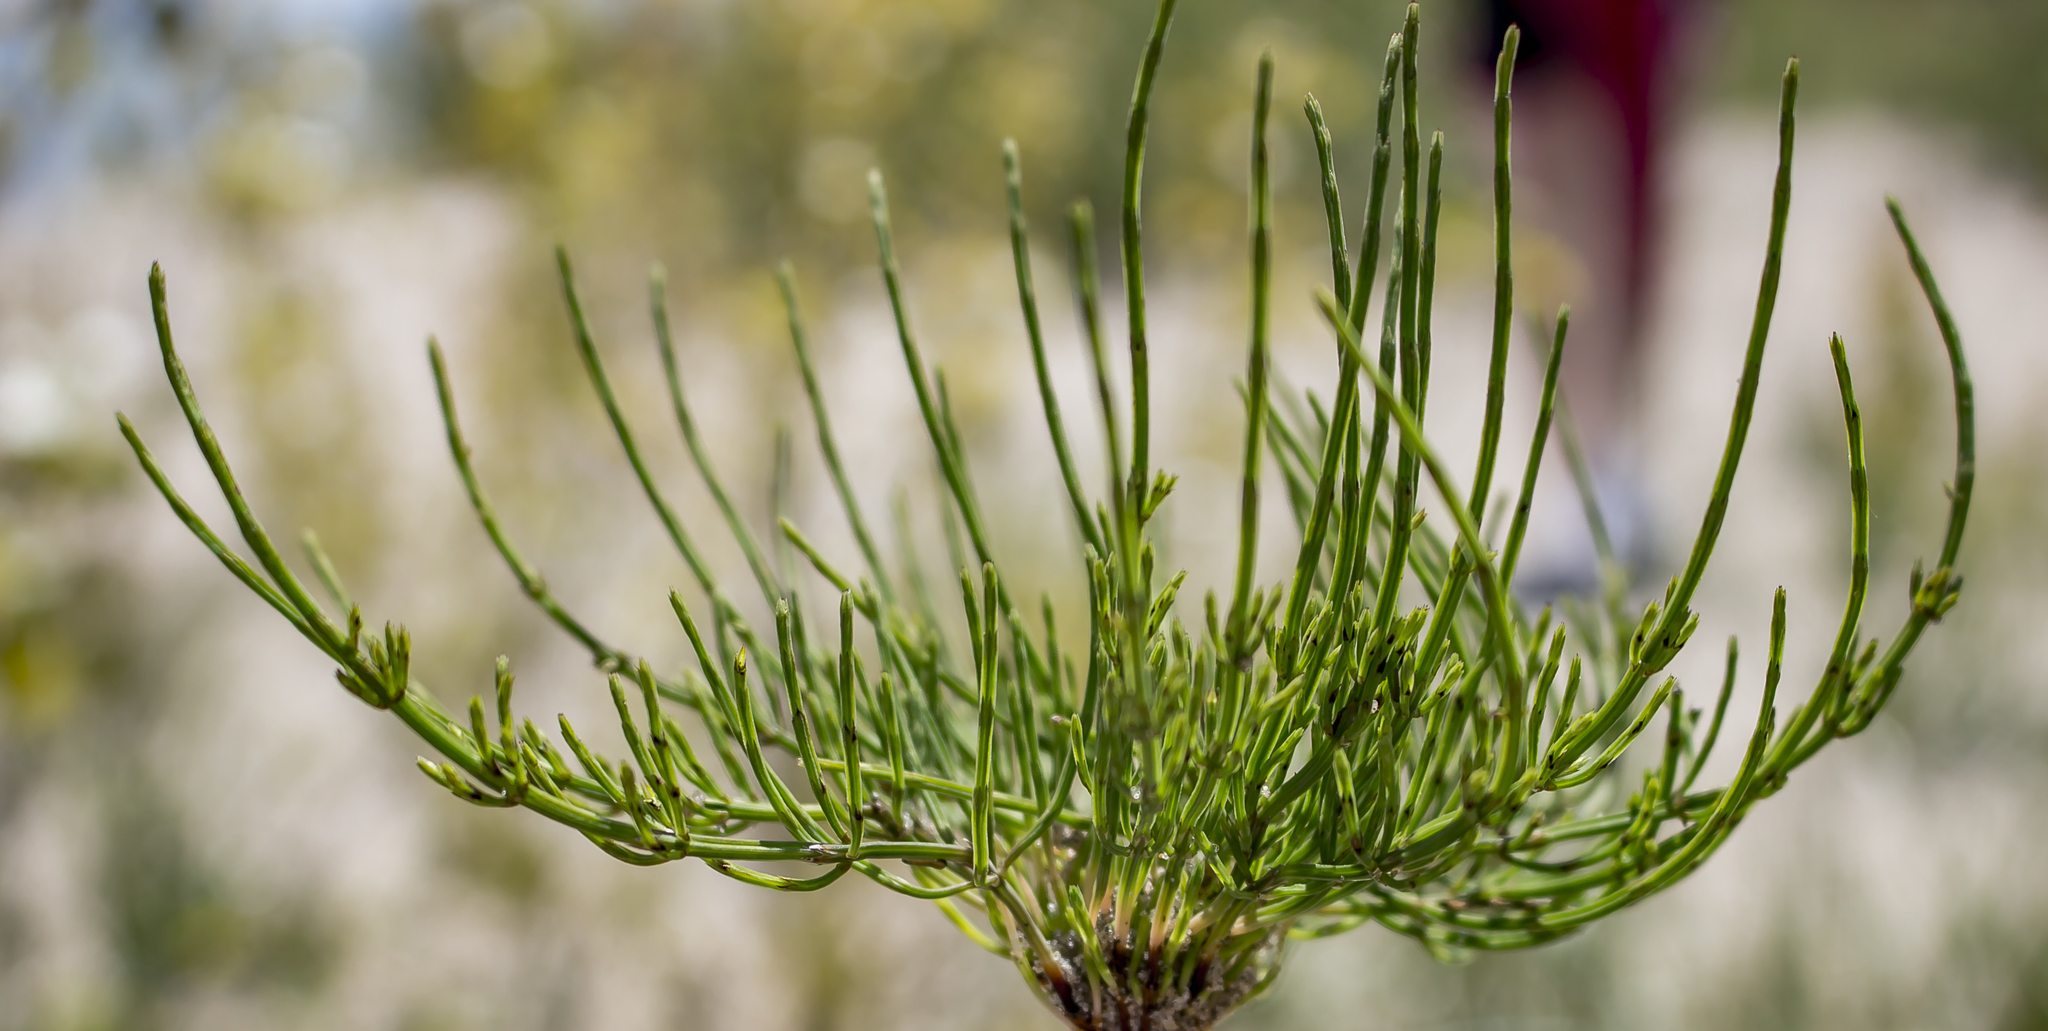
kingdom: Plantae
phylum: Tracheophyta
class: Polypodiopsida
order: Equisetales
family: Equisetaceae
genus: Equisetum
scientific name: Equisetum arvense
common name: Field horsetail
